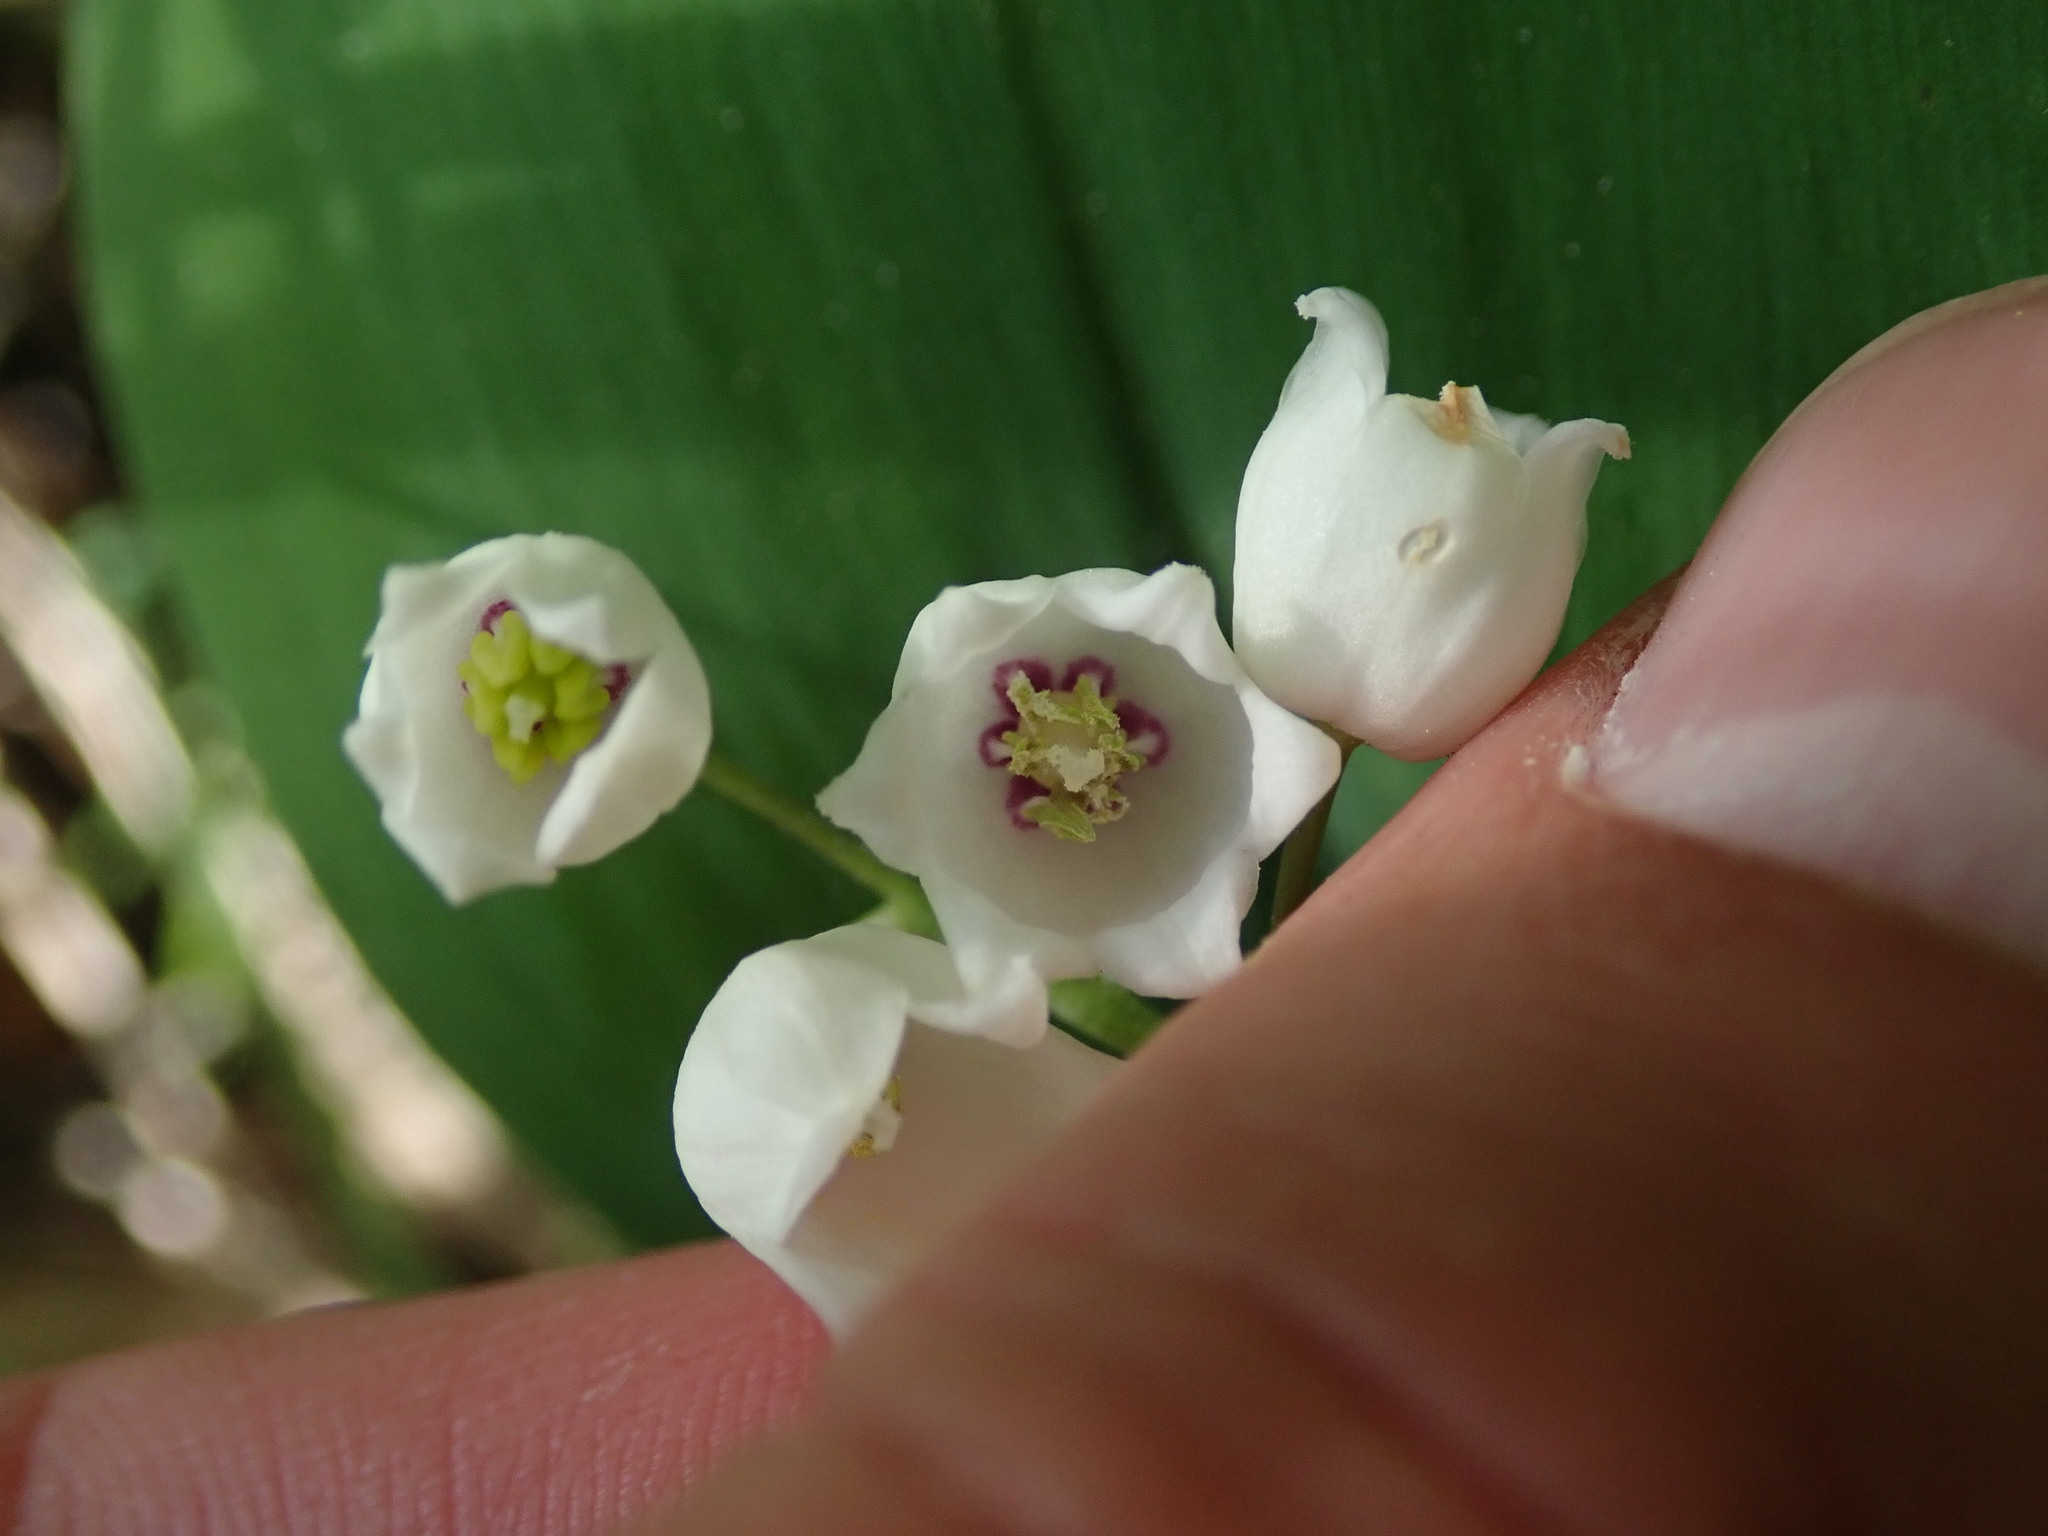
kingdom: Plantae
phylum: Tracheophyta
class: Liliopsida
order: Asparagales
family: Asparagaceae
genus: Convallaria
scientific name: Convallaria majalis
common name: Lily-of-the-valley
